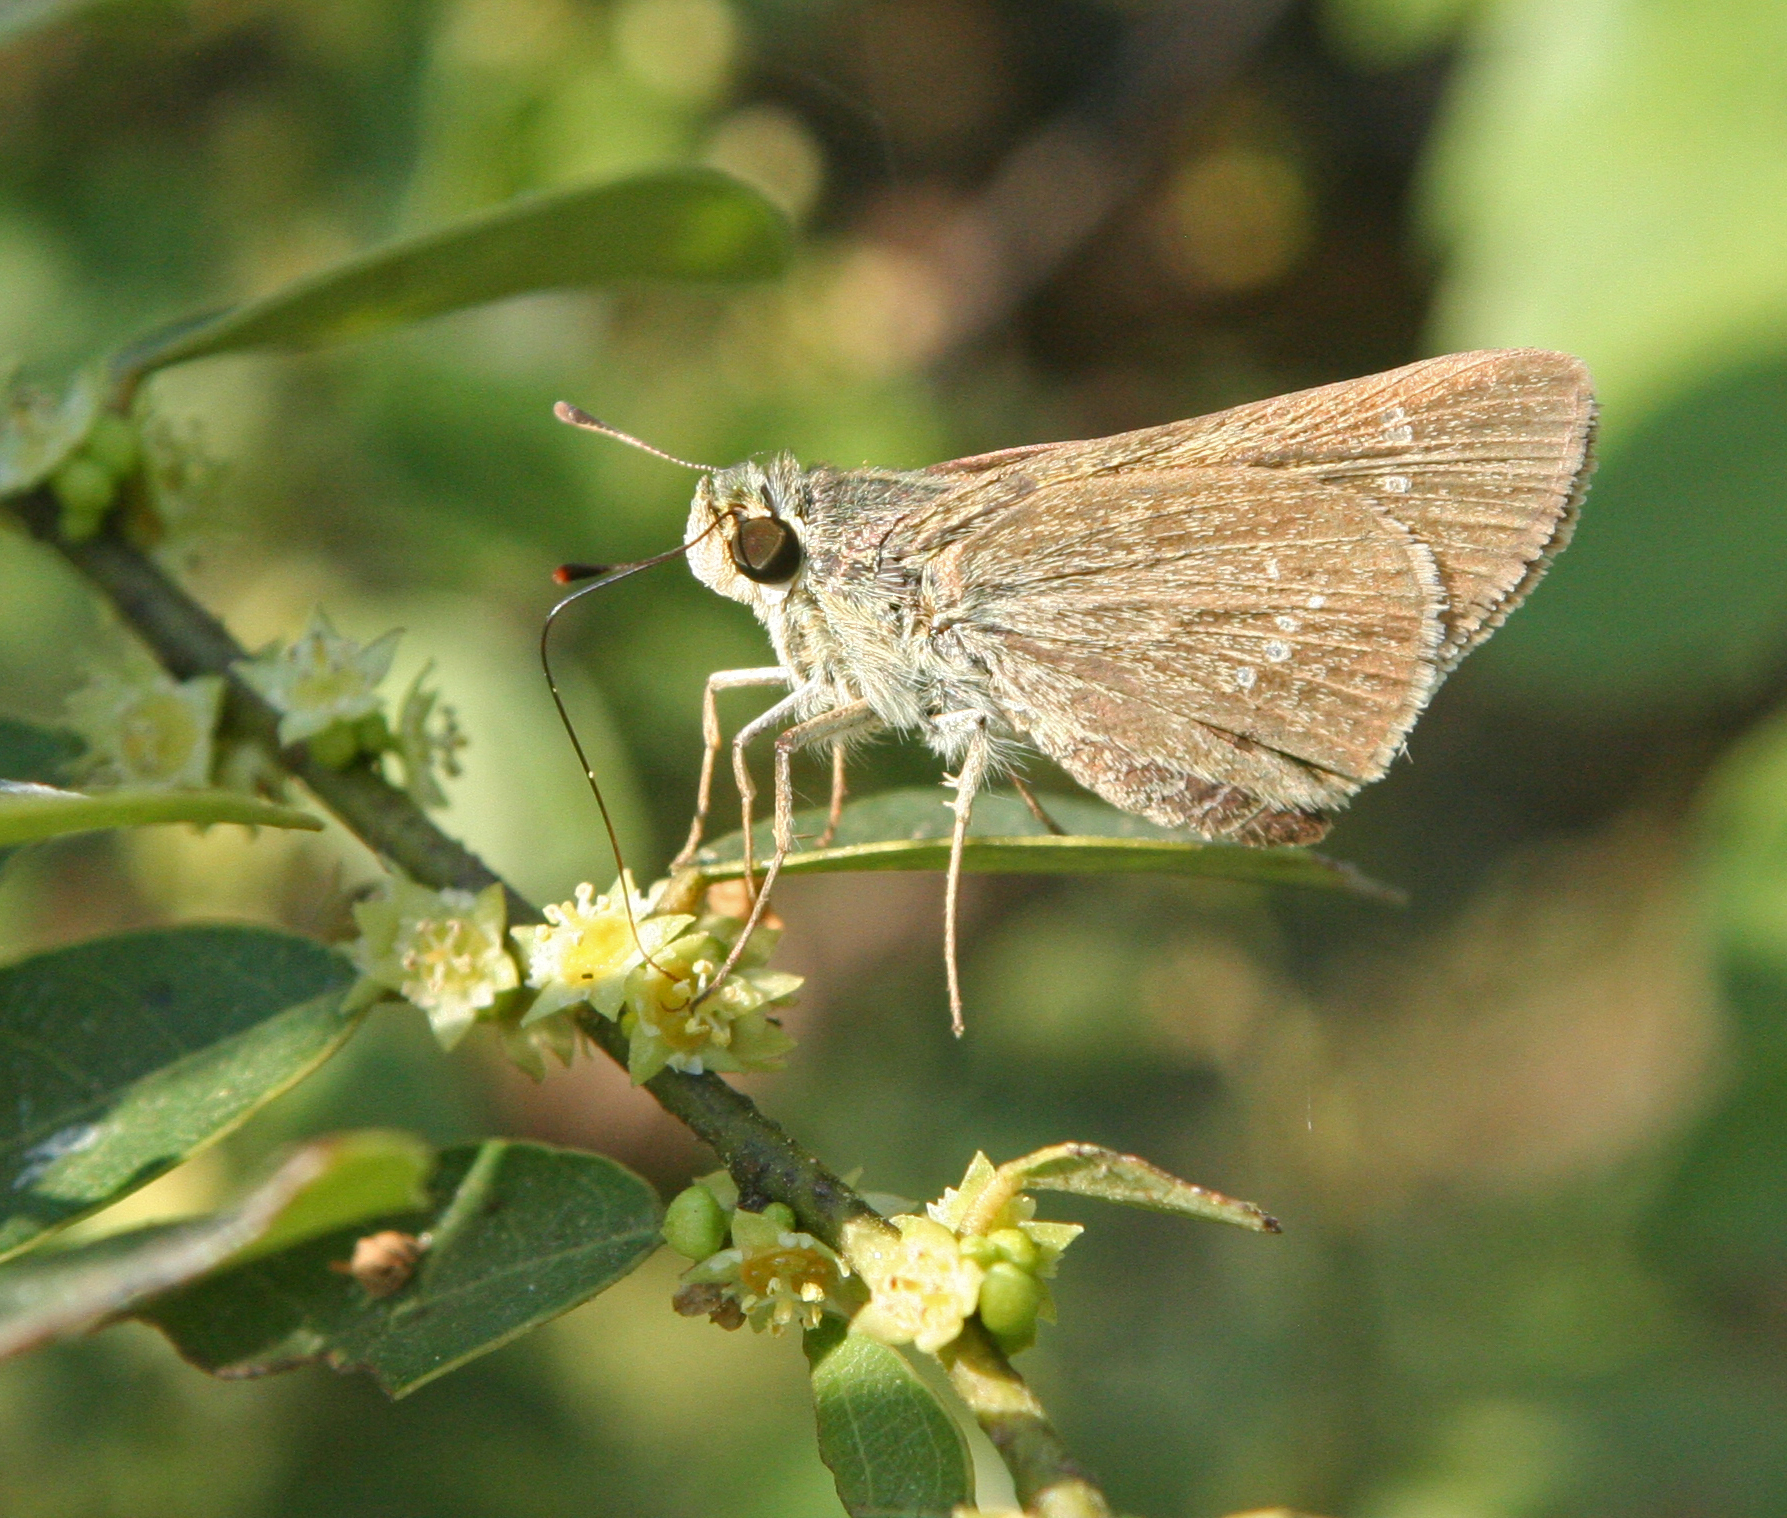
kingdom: Animalia
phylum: Arthropoda
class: Insecta
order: Lepidoptera
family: Hesperiidae
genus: Pelopidas
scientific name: Pelopidas mathias
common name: Black-branded swift
